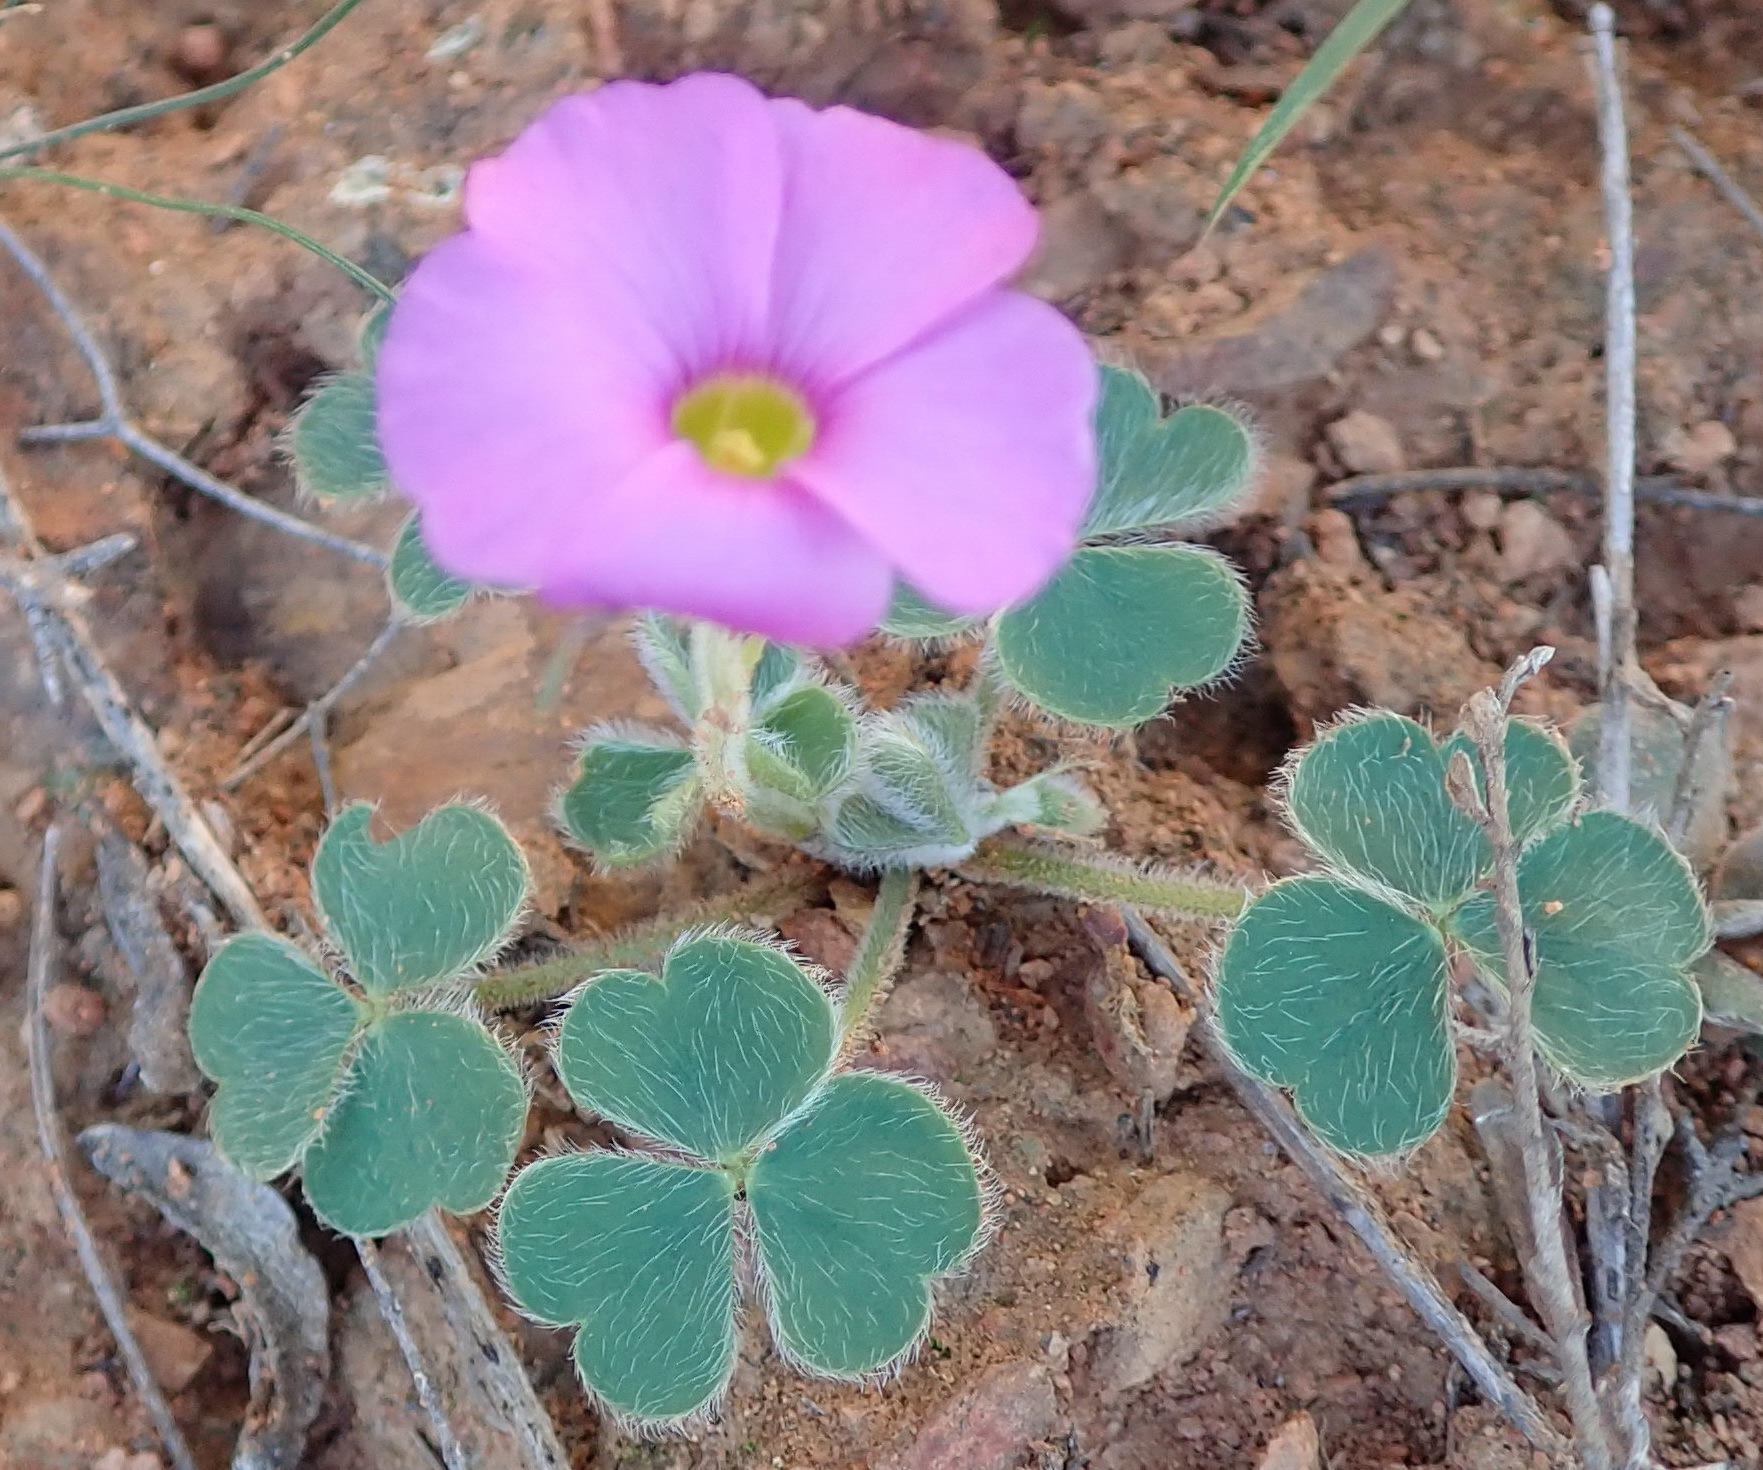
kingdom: Plantae
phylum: Tracheophyta
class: Magnoliopsida
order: Oxalidales
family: Oxalidaceae
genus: Oxalis
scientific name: Oxalis imbricata
